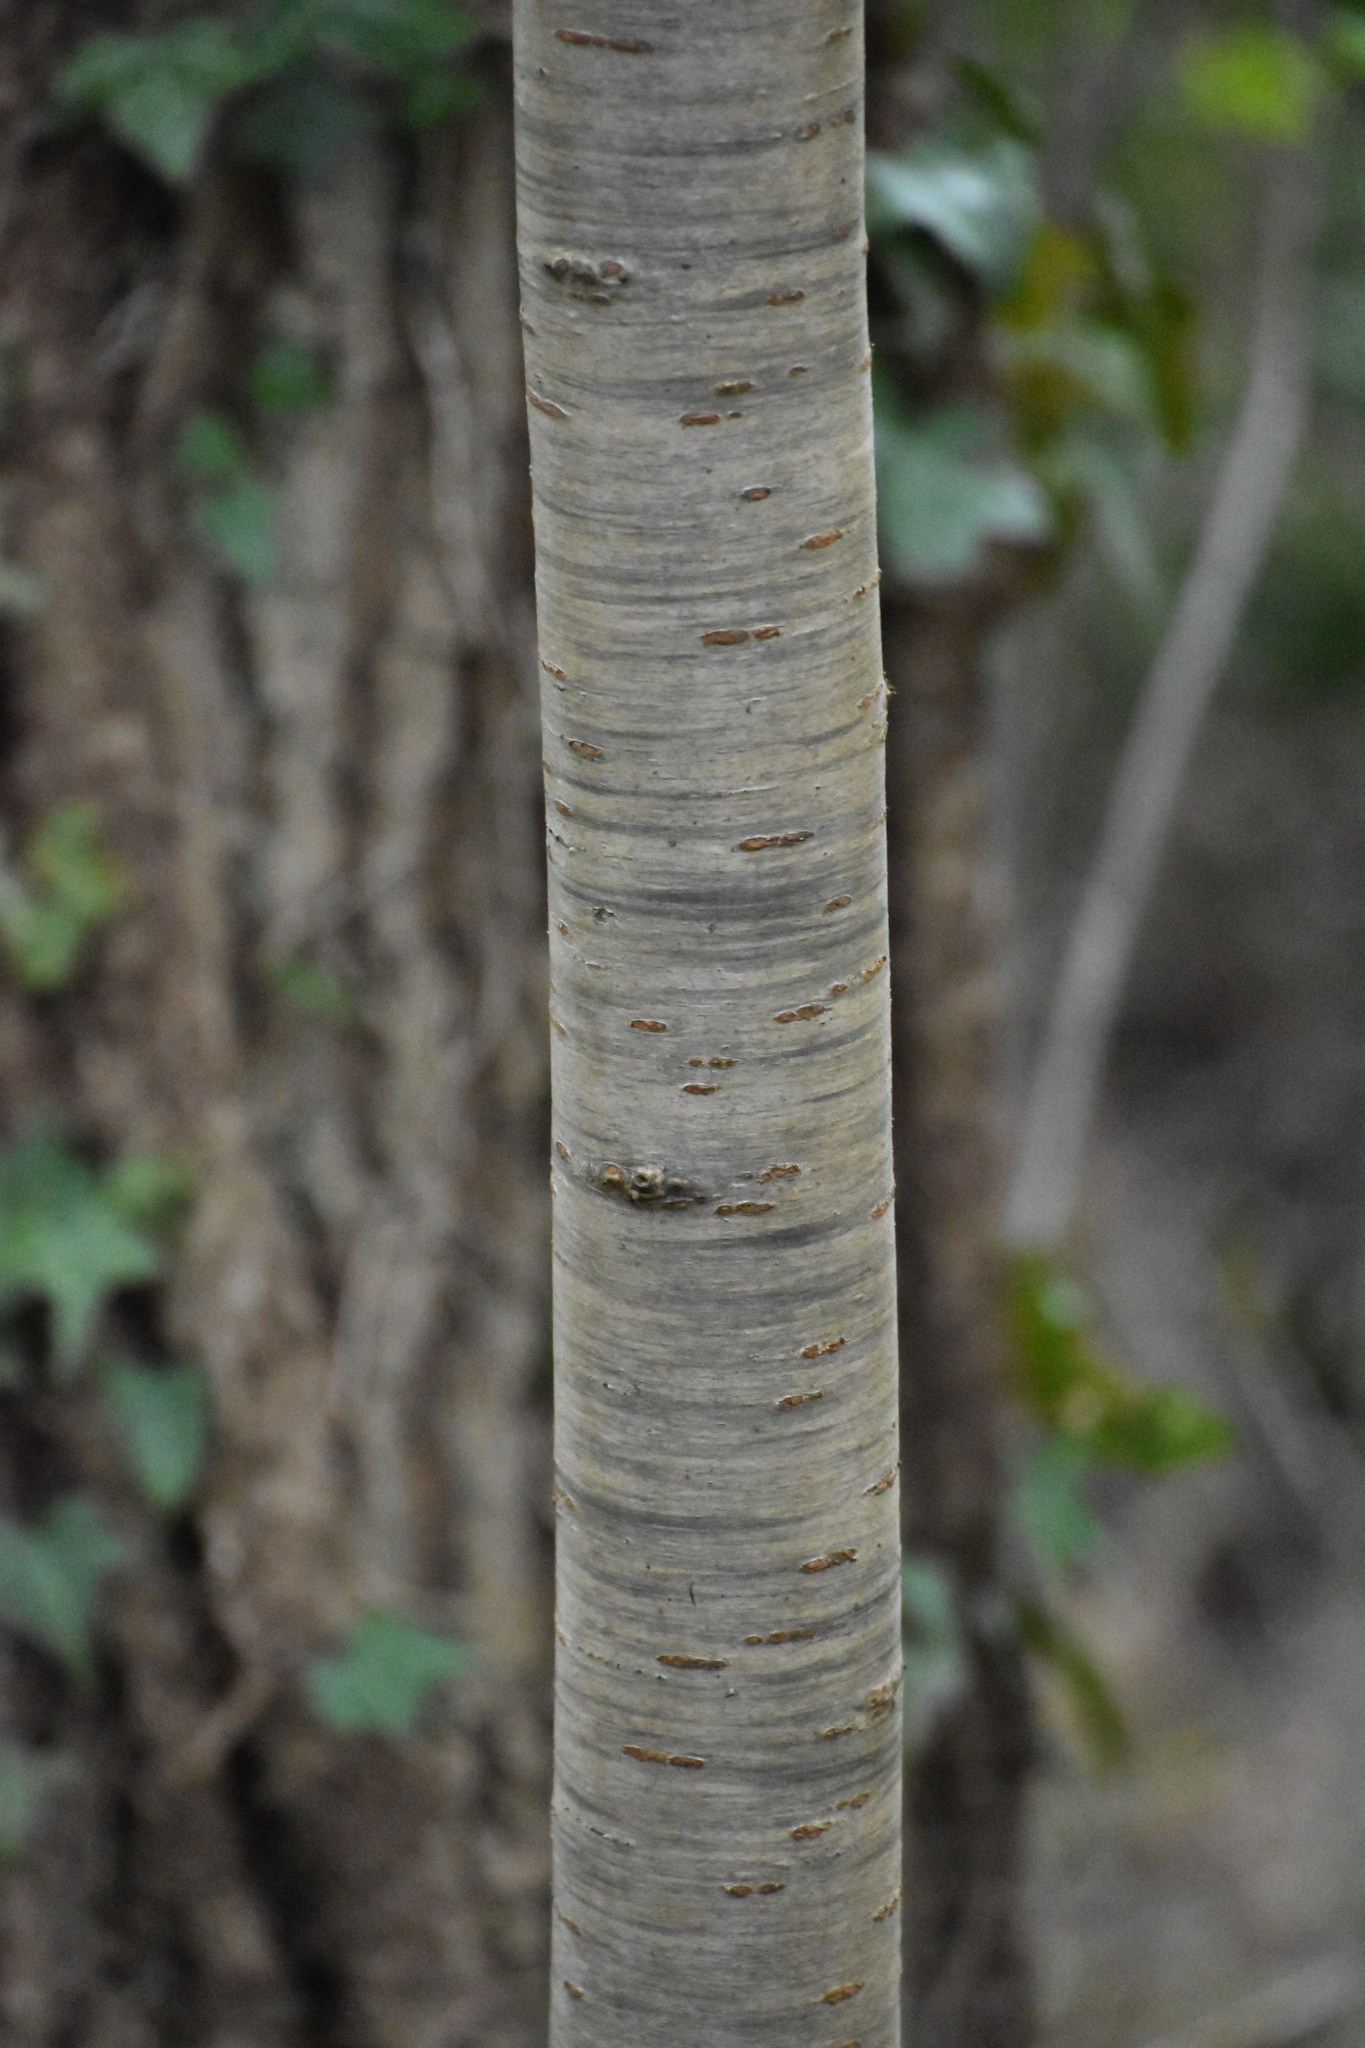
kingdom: Plantae
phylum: Tracheophyta
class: Magnoliopsida
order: Rosales
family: Rosaceae
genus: Prunus
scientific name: Prunus avium
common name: Sweet cherry
